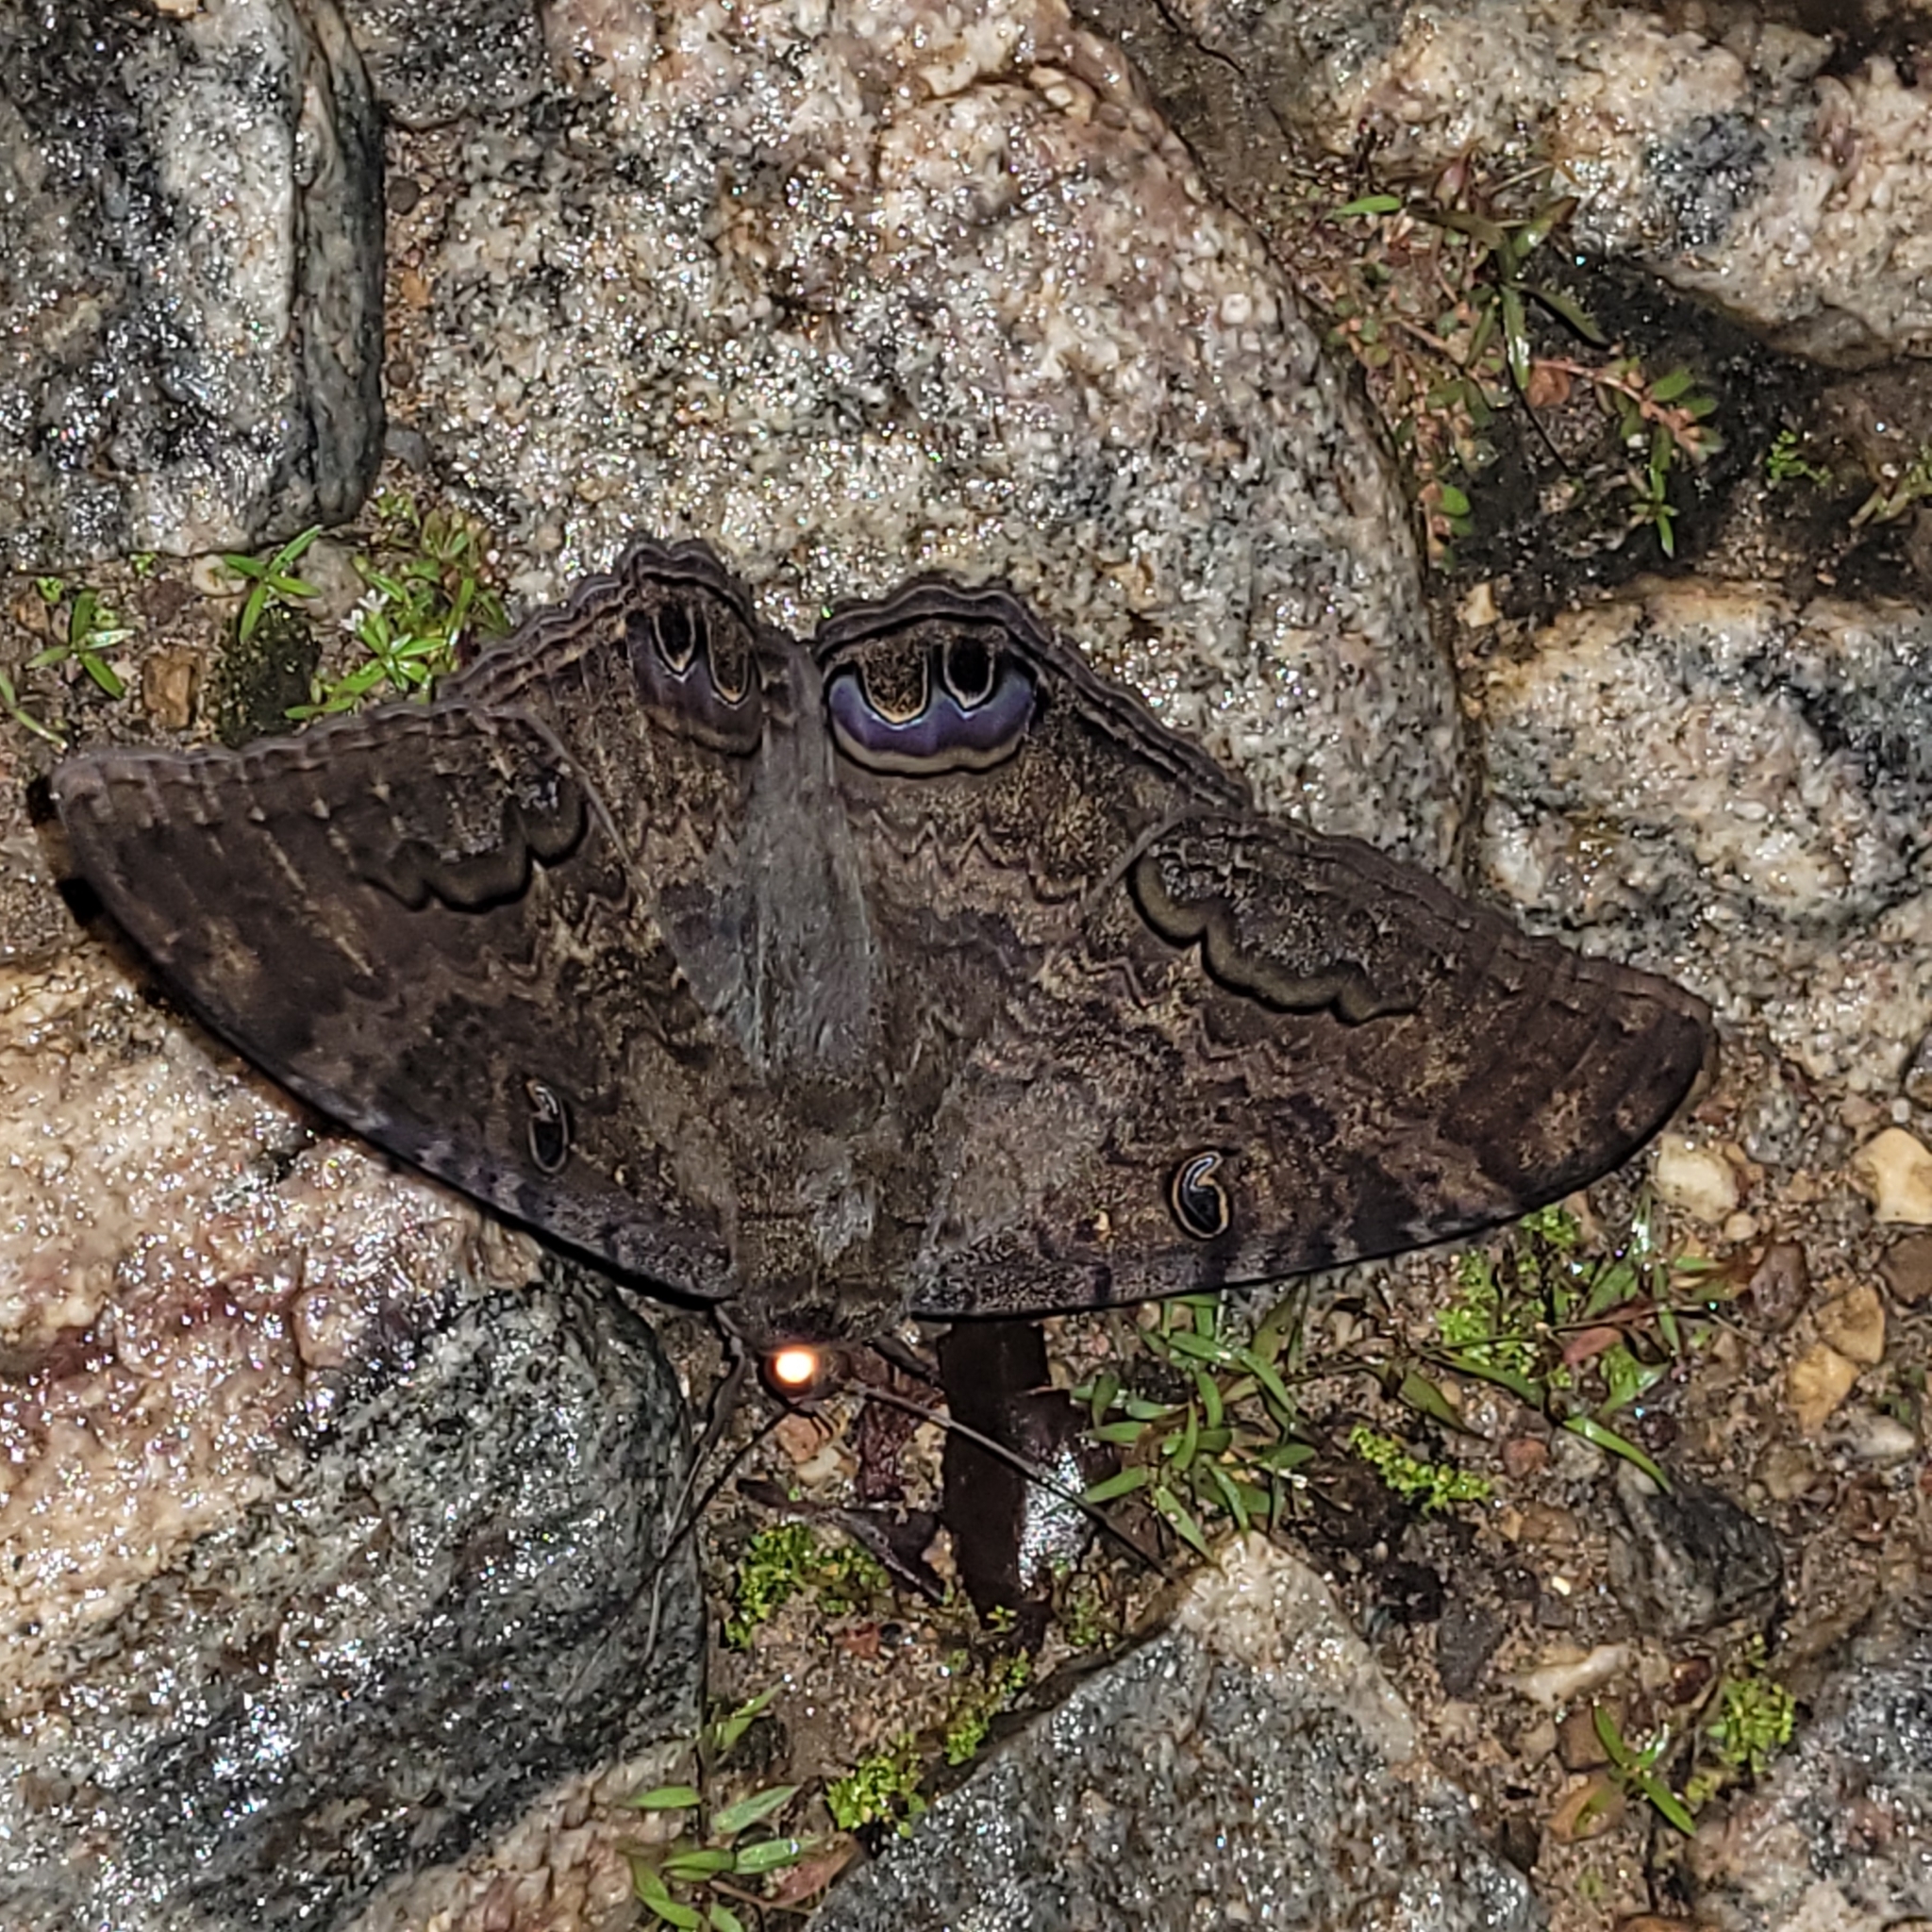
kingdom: Animalia
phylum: Arthropoda
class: Insecta
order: Lepidoptera
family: Erebidae
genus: Ascalapha
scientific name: Ascalapha odorata
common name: Black witch
